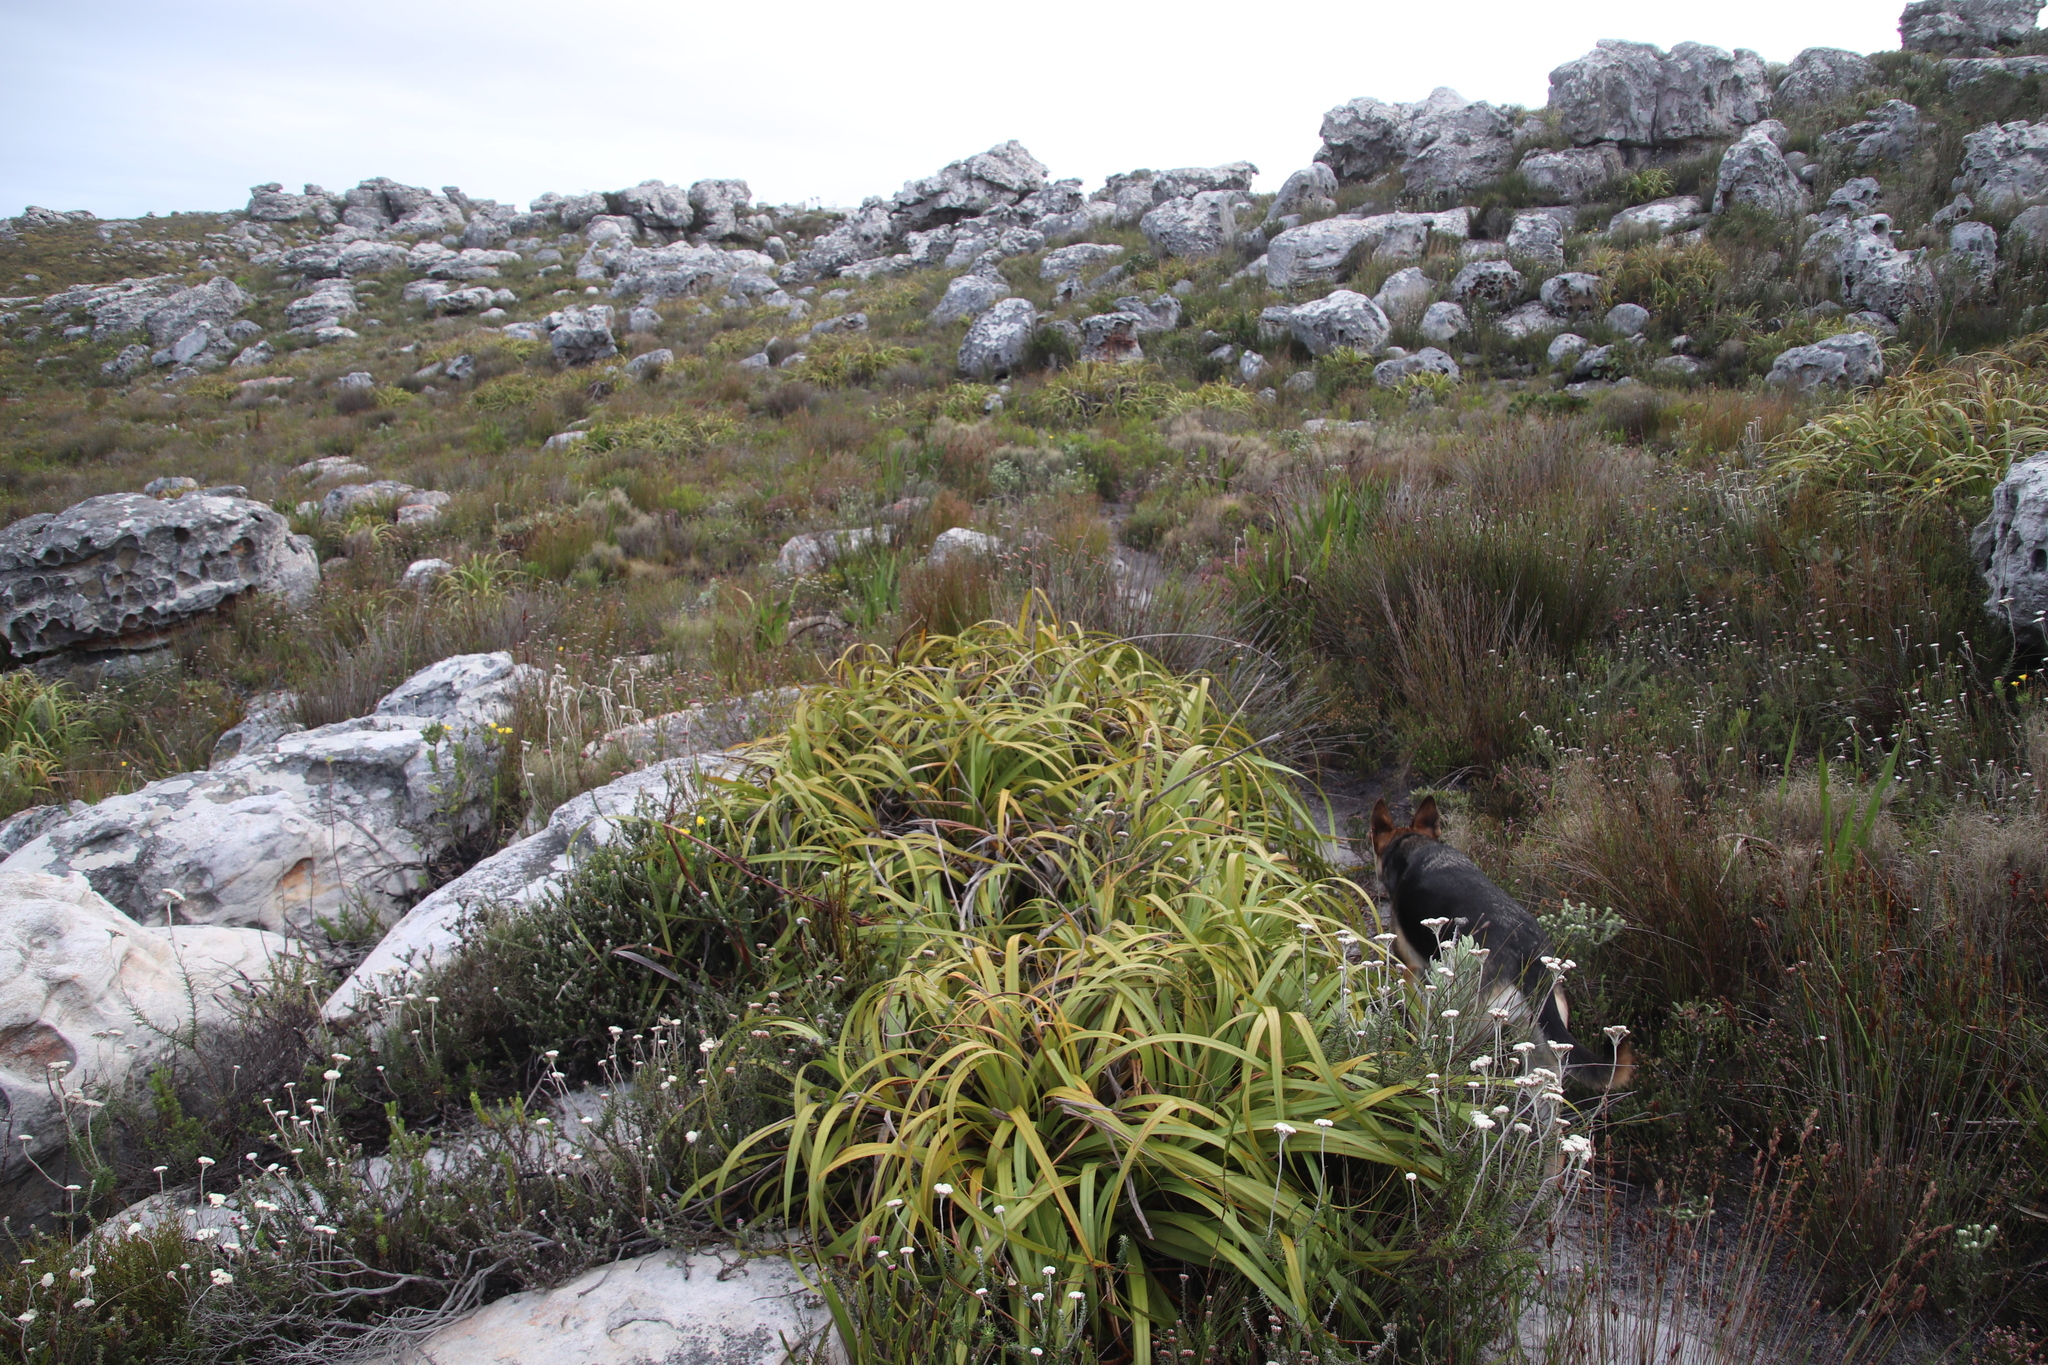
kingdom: Plantae
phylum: Tracheophyta
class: Liliopsida
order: Poales
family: Cyperaceae
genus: Tetraria
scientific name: Tetraria thermalis
